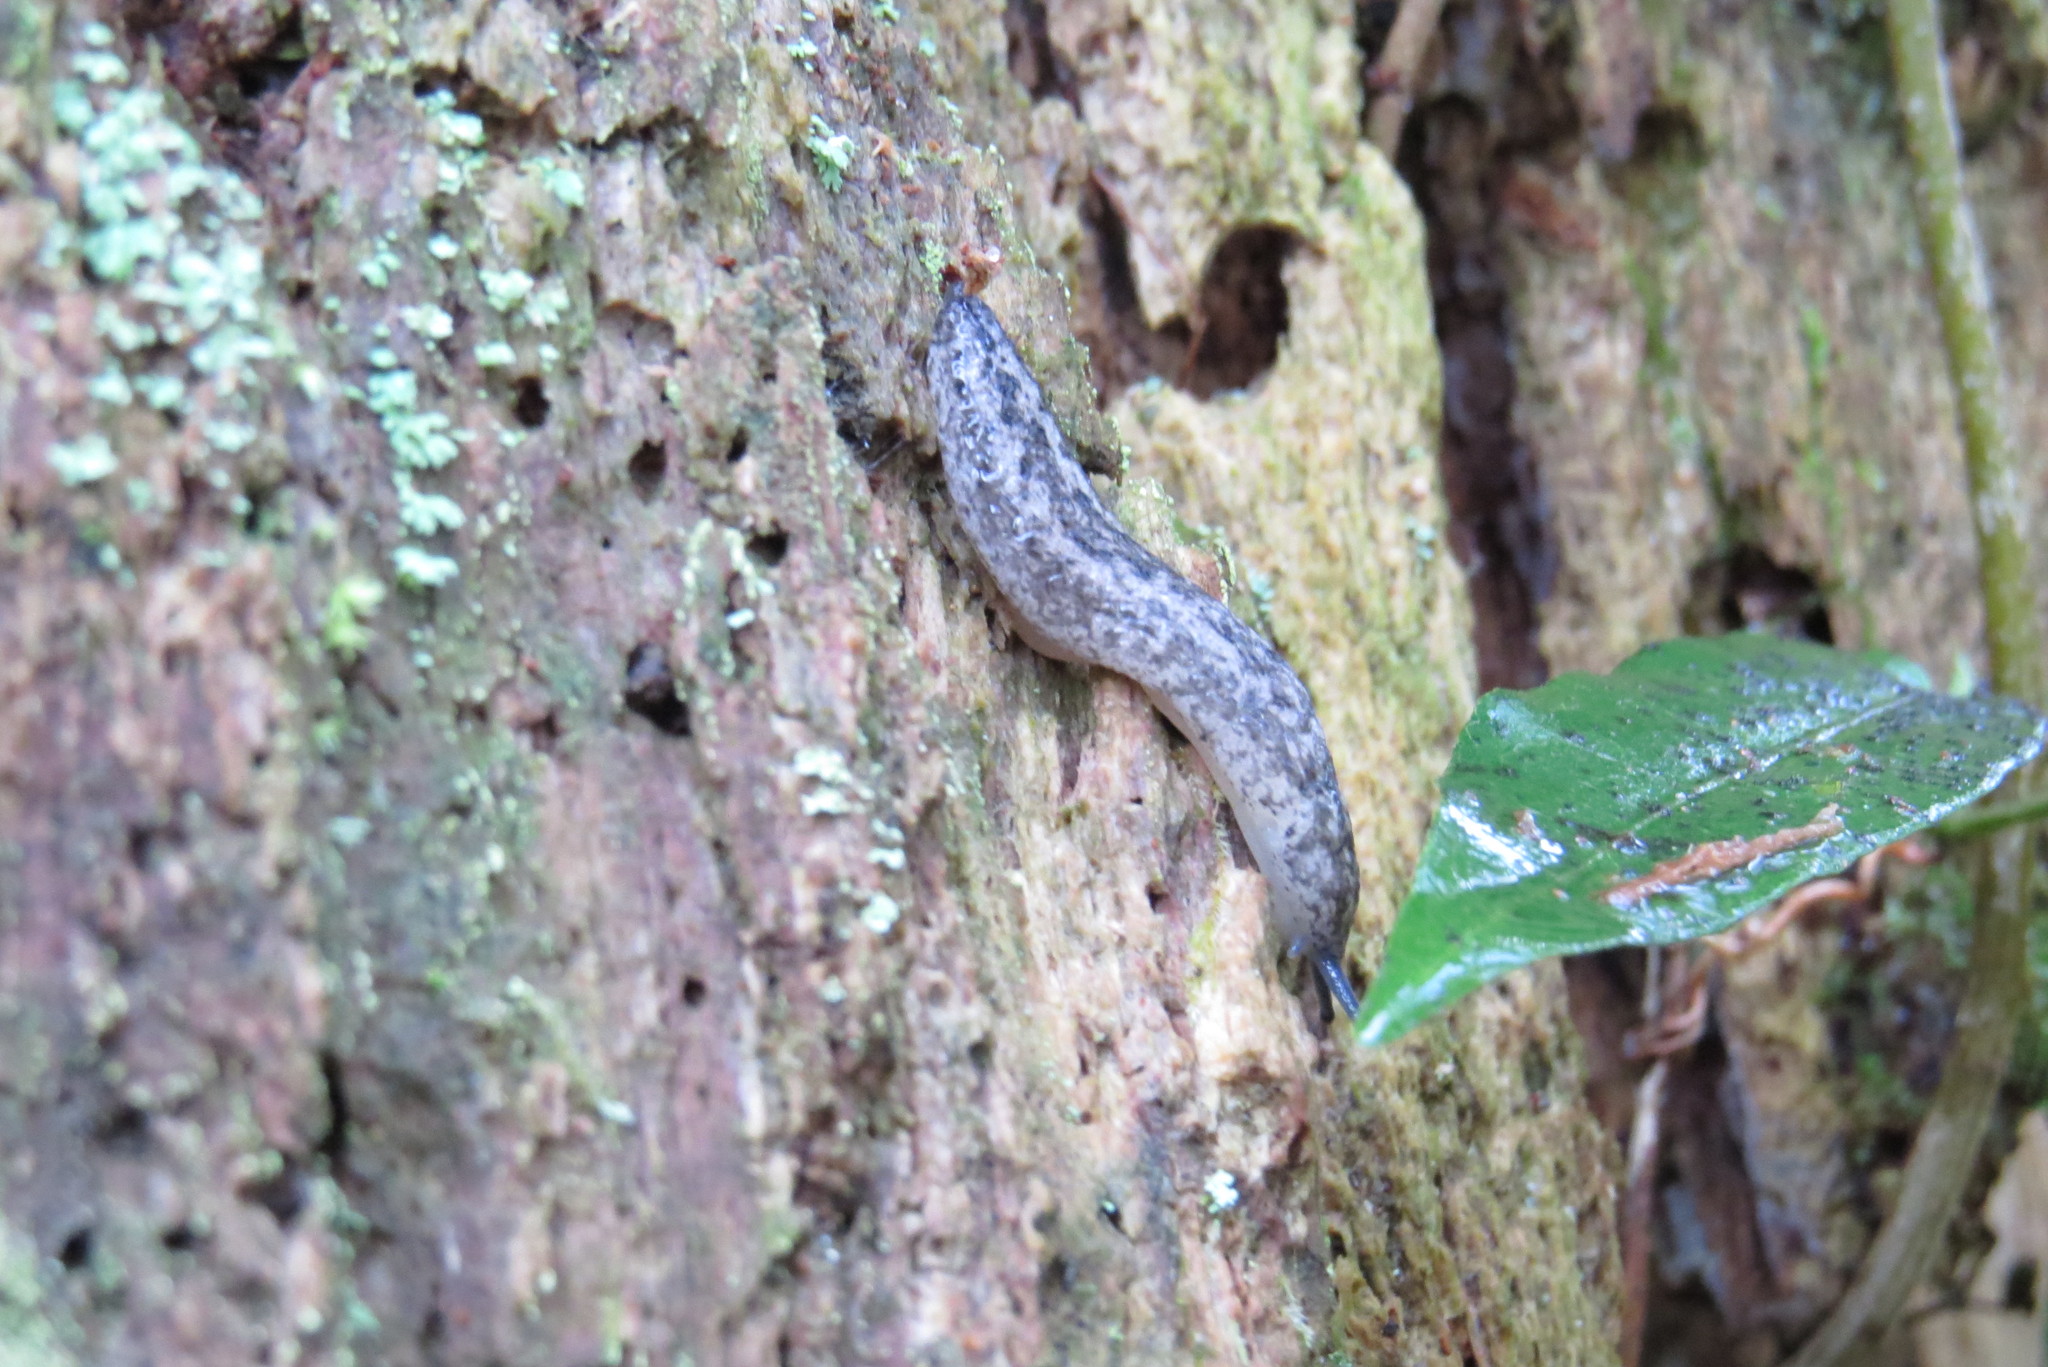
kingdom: Animalia
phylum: Mollusca
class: Gastropoda
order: Stylommatophora
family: Philomycidae
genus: Philomycus
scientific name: Philomycus carolinianus
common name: Carolina mantleslug
